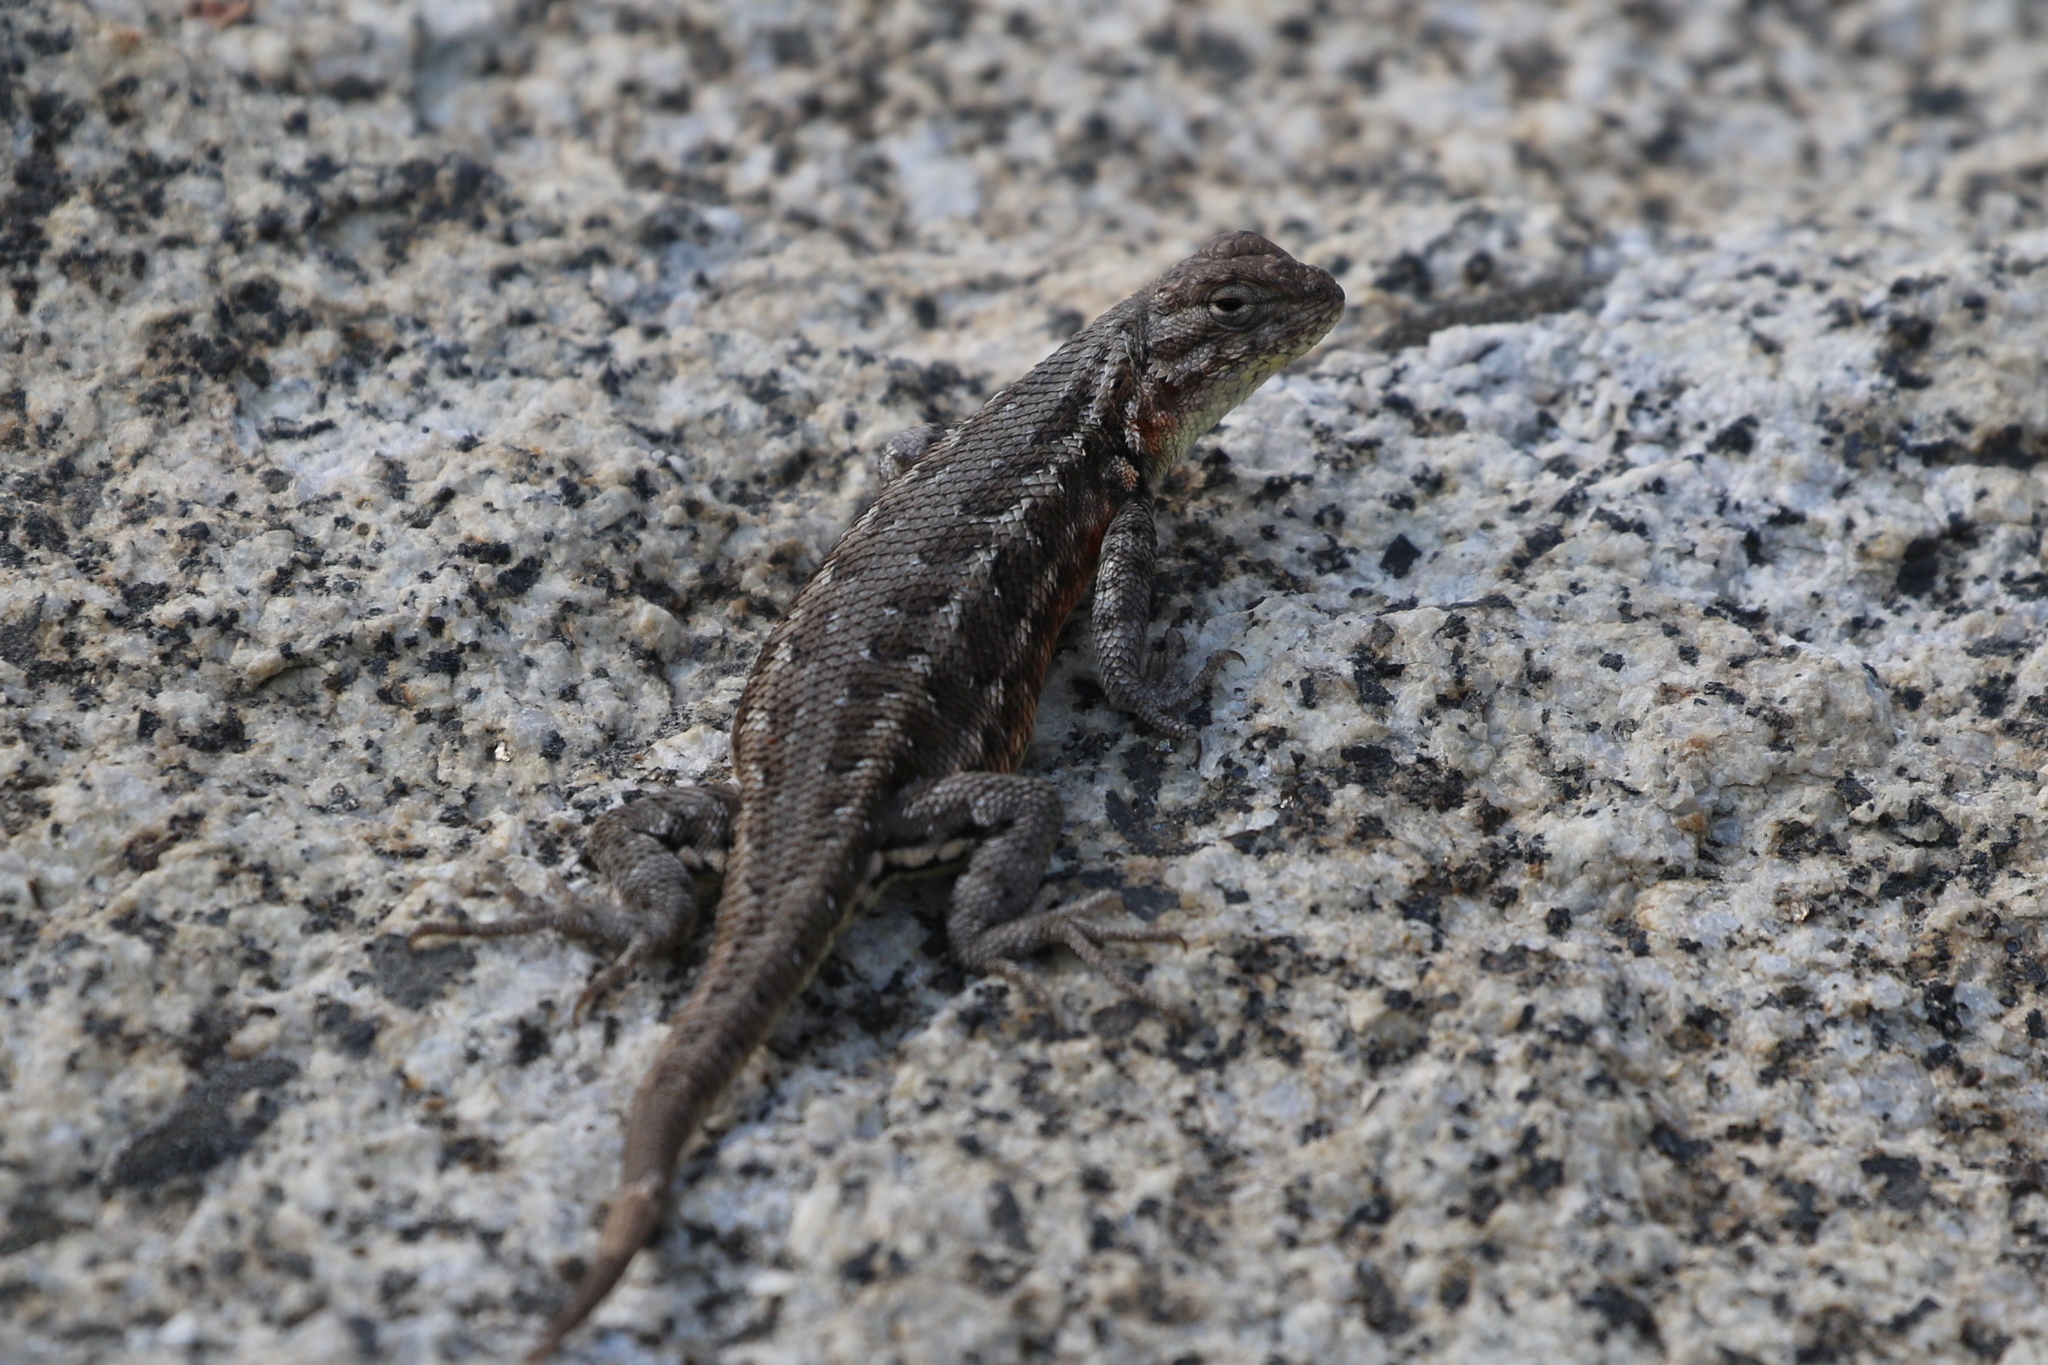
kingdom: Animalia
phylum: Chordata
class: Squamata
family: Phrynosomatidae
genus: Sceloporus
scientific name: Sceloporus graciosus
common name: Sagebrush lizard
